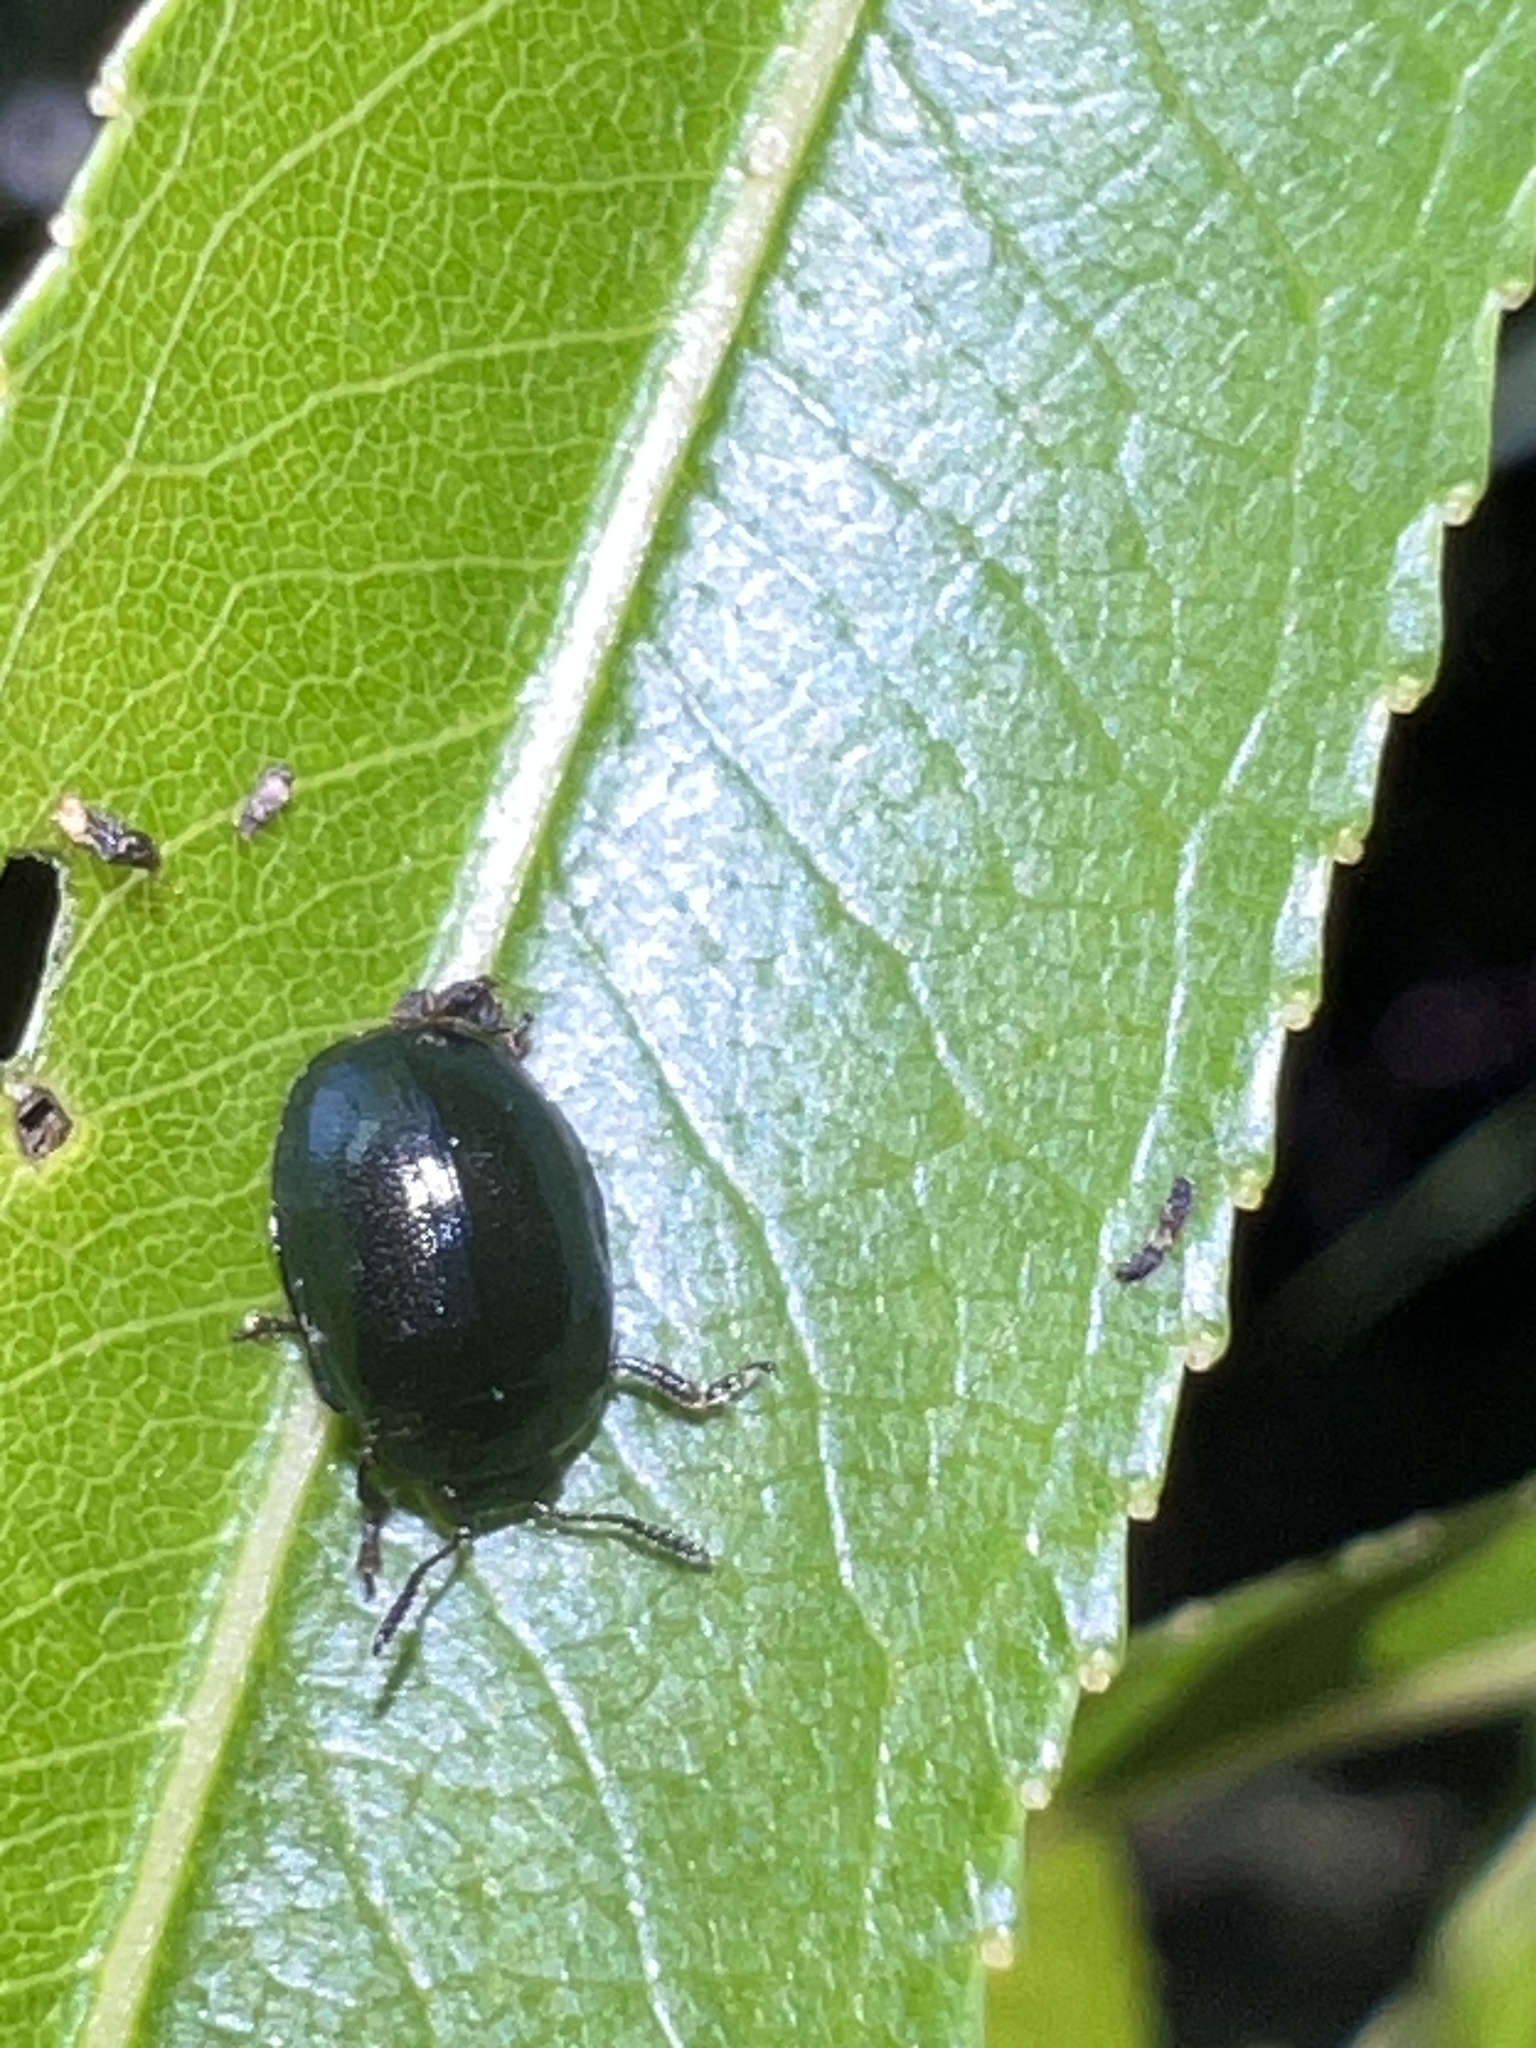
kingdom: Animalia
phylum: Arthropoda
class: Insecta
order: Coleoptera
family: Chrysomelidae
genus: Plagiodera
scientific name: Plagiodera versicolora
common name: Imported willow leaf beetle
